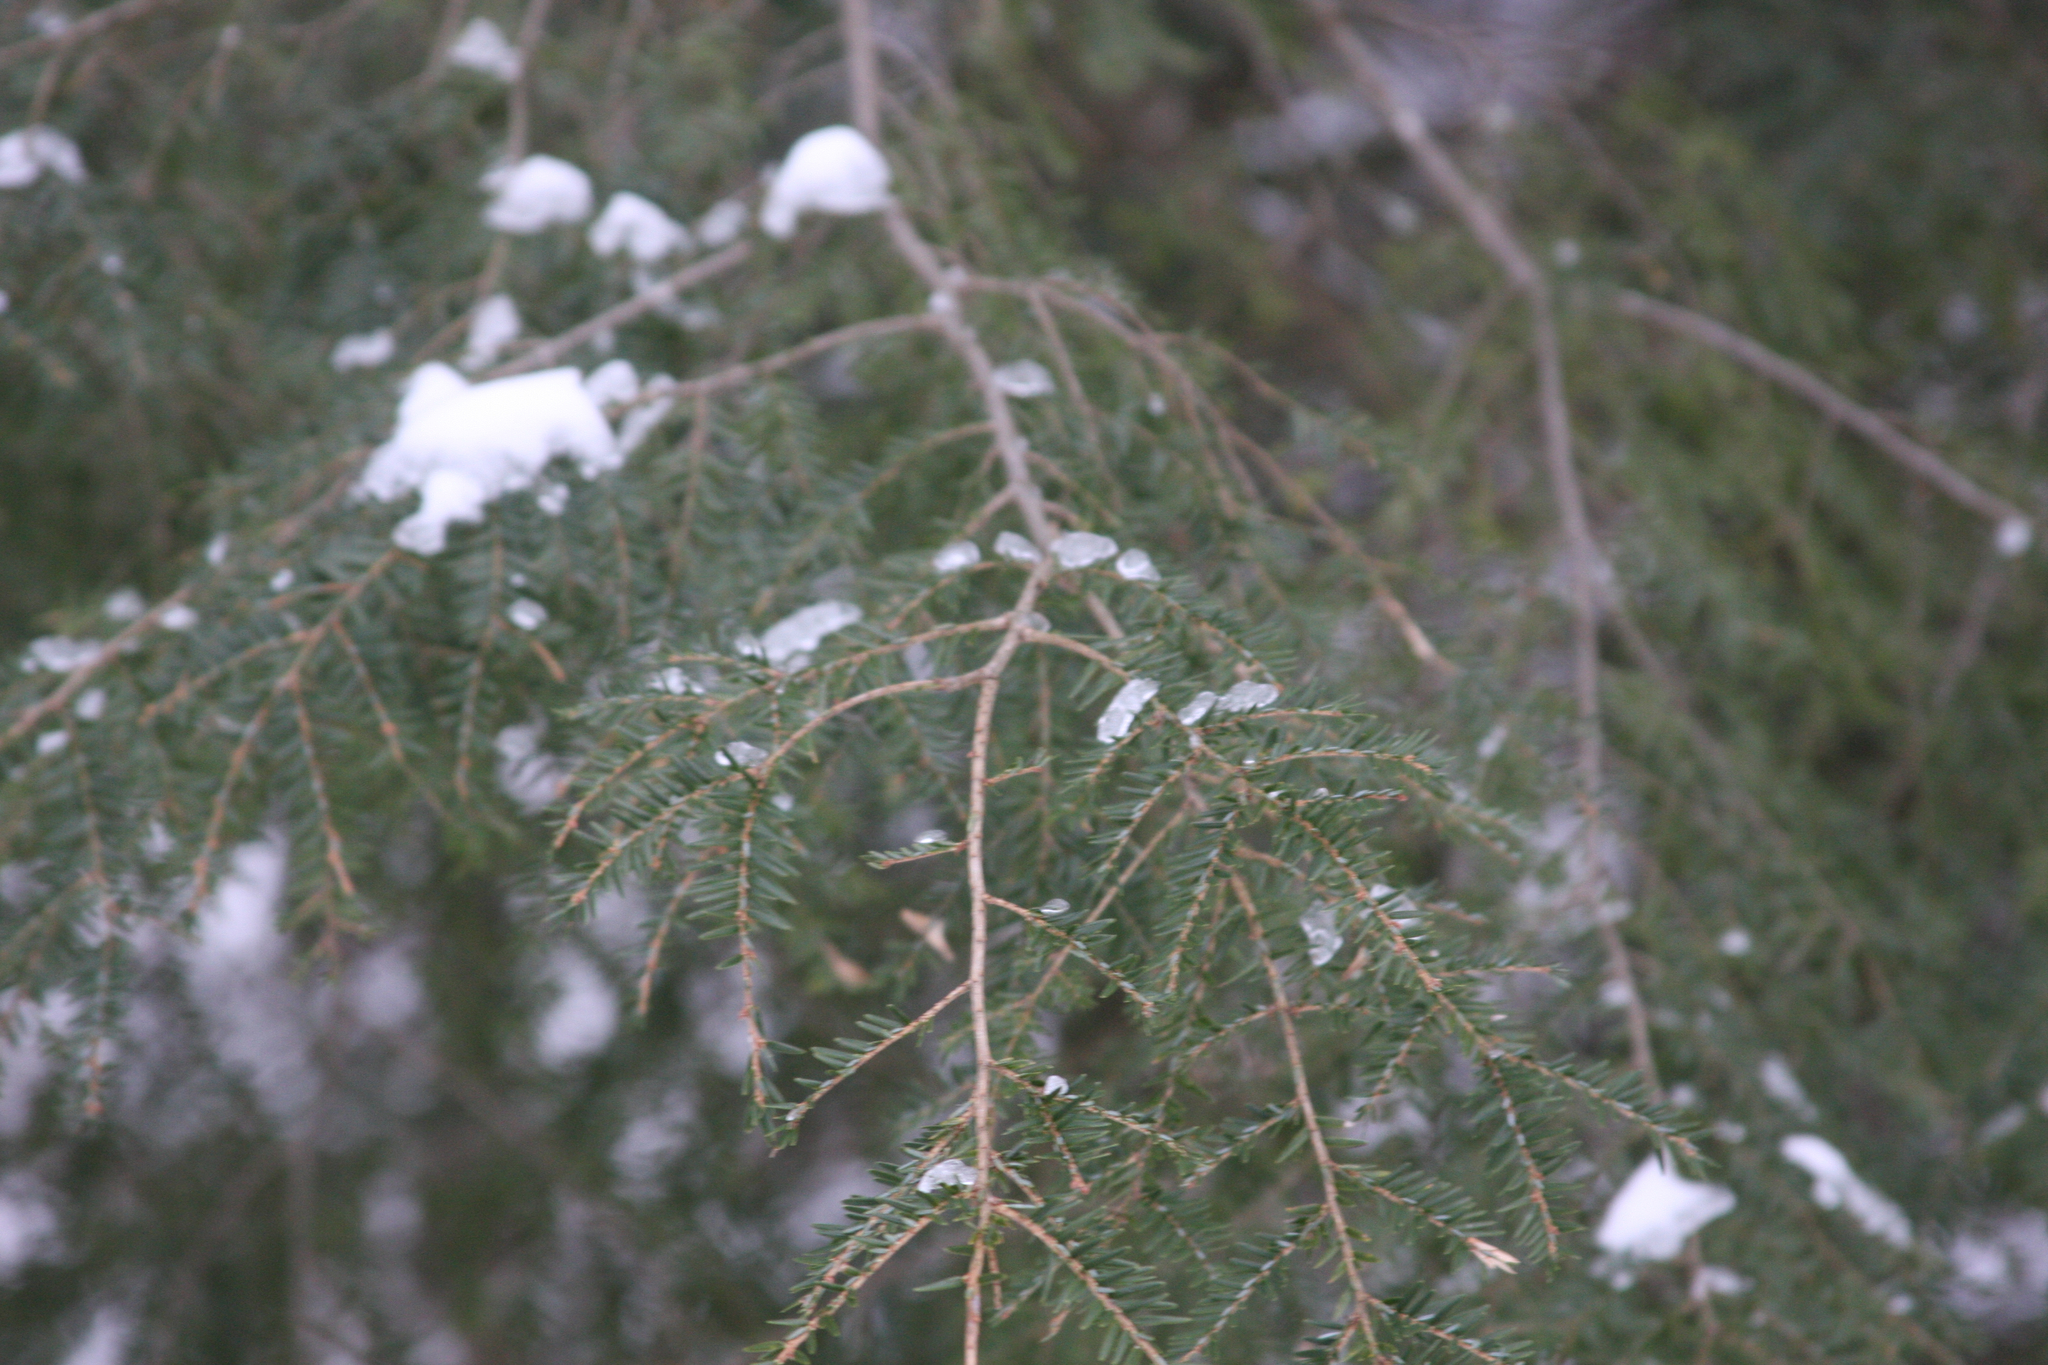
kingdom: Plantae
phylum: Tracheophyta
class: Pinopsida
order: Pinales
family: Pinaceae
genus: Tsuga
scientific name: Tsuga canadensis
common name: Eastern hemlock
